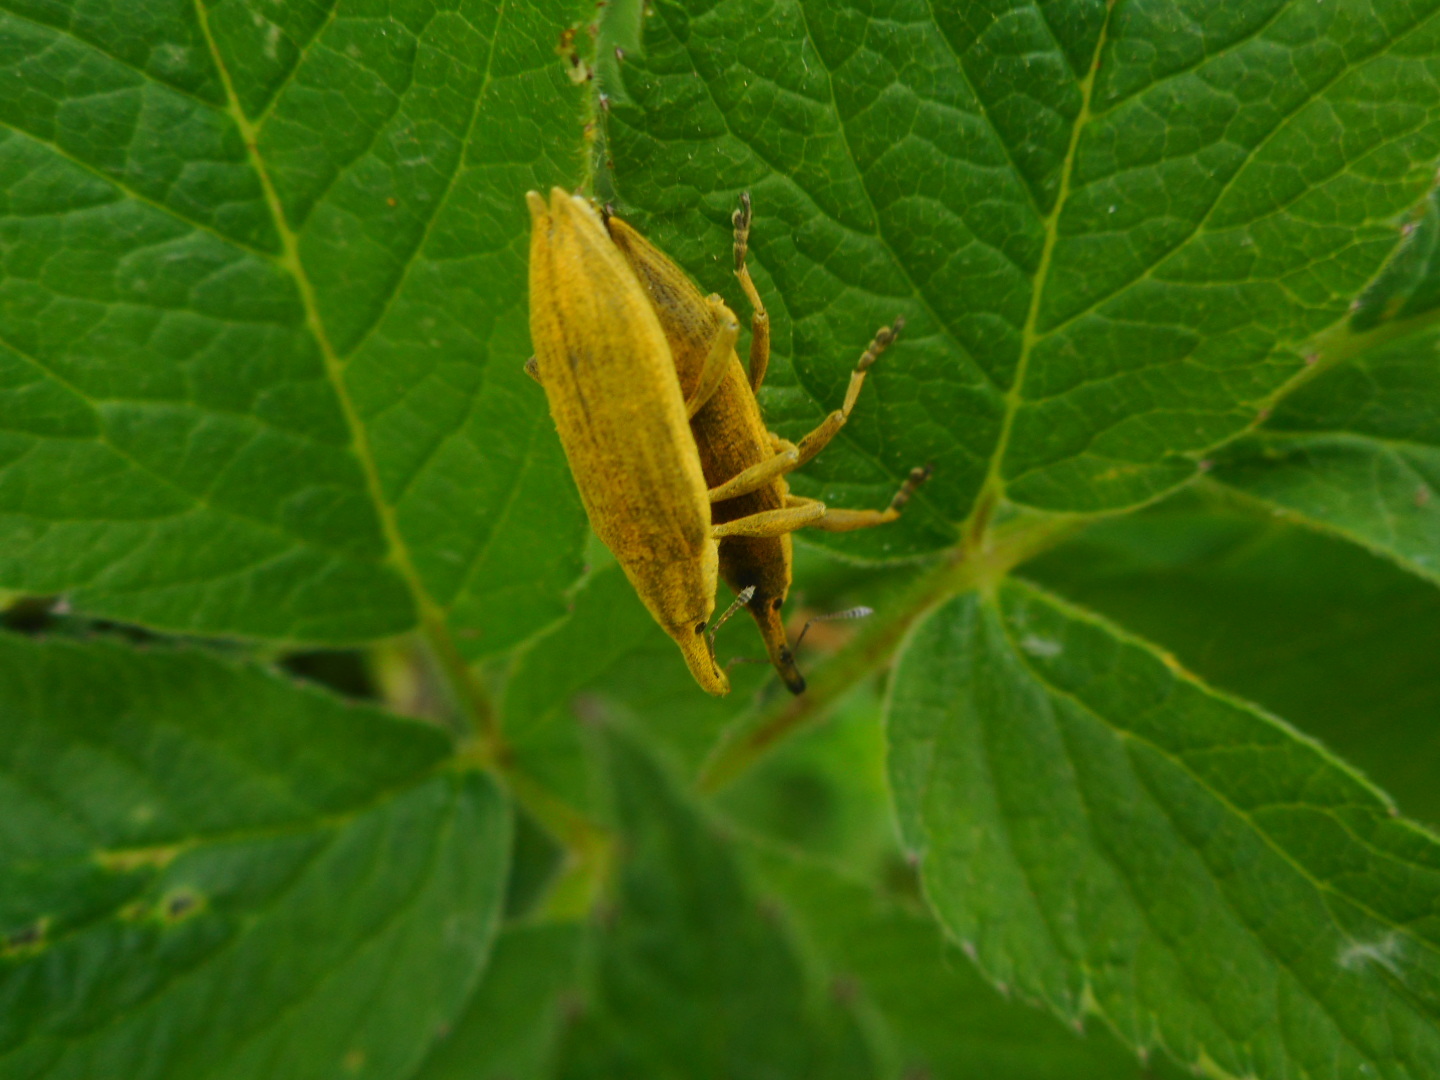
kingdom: Animalia
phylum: Arthropoda
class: Insecta
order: Coleoptera
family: Curculionidae
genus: Lixus
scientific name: Lixus iridis
